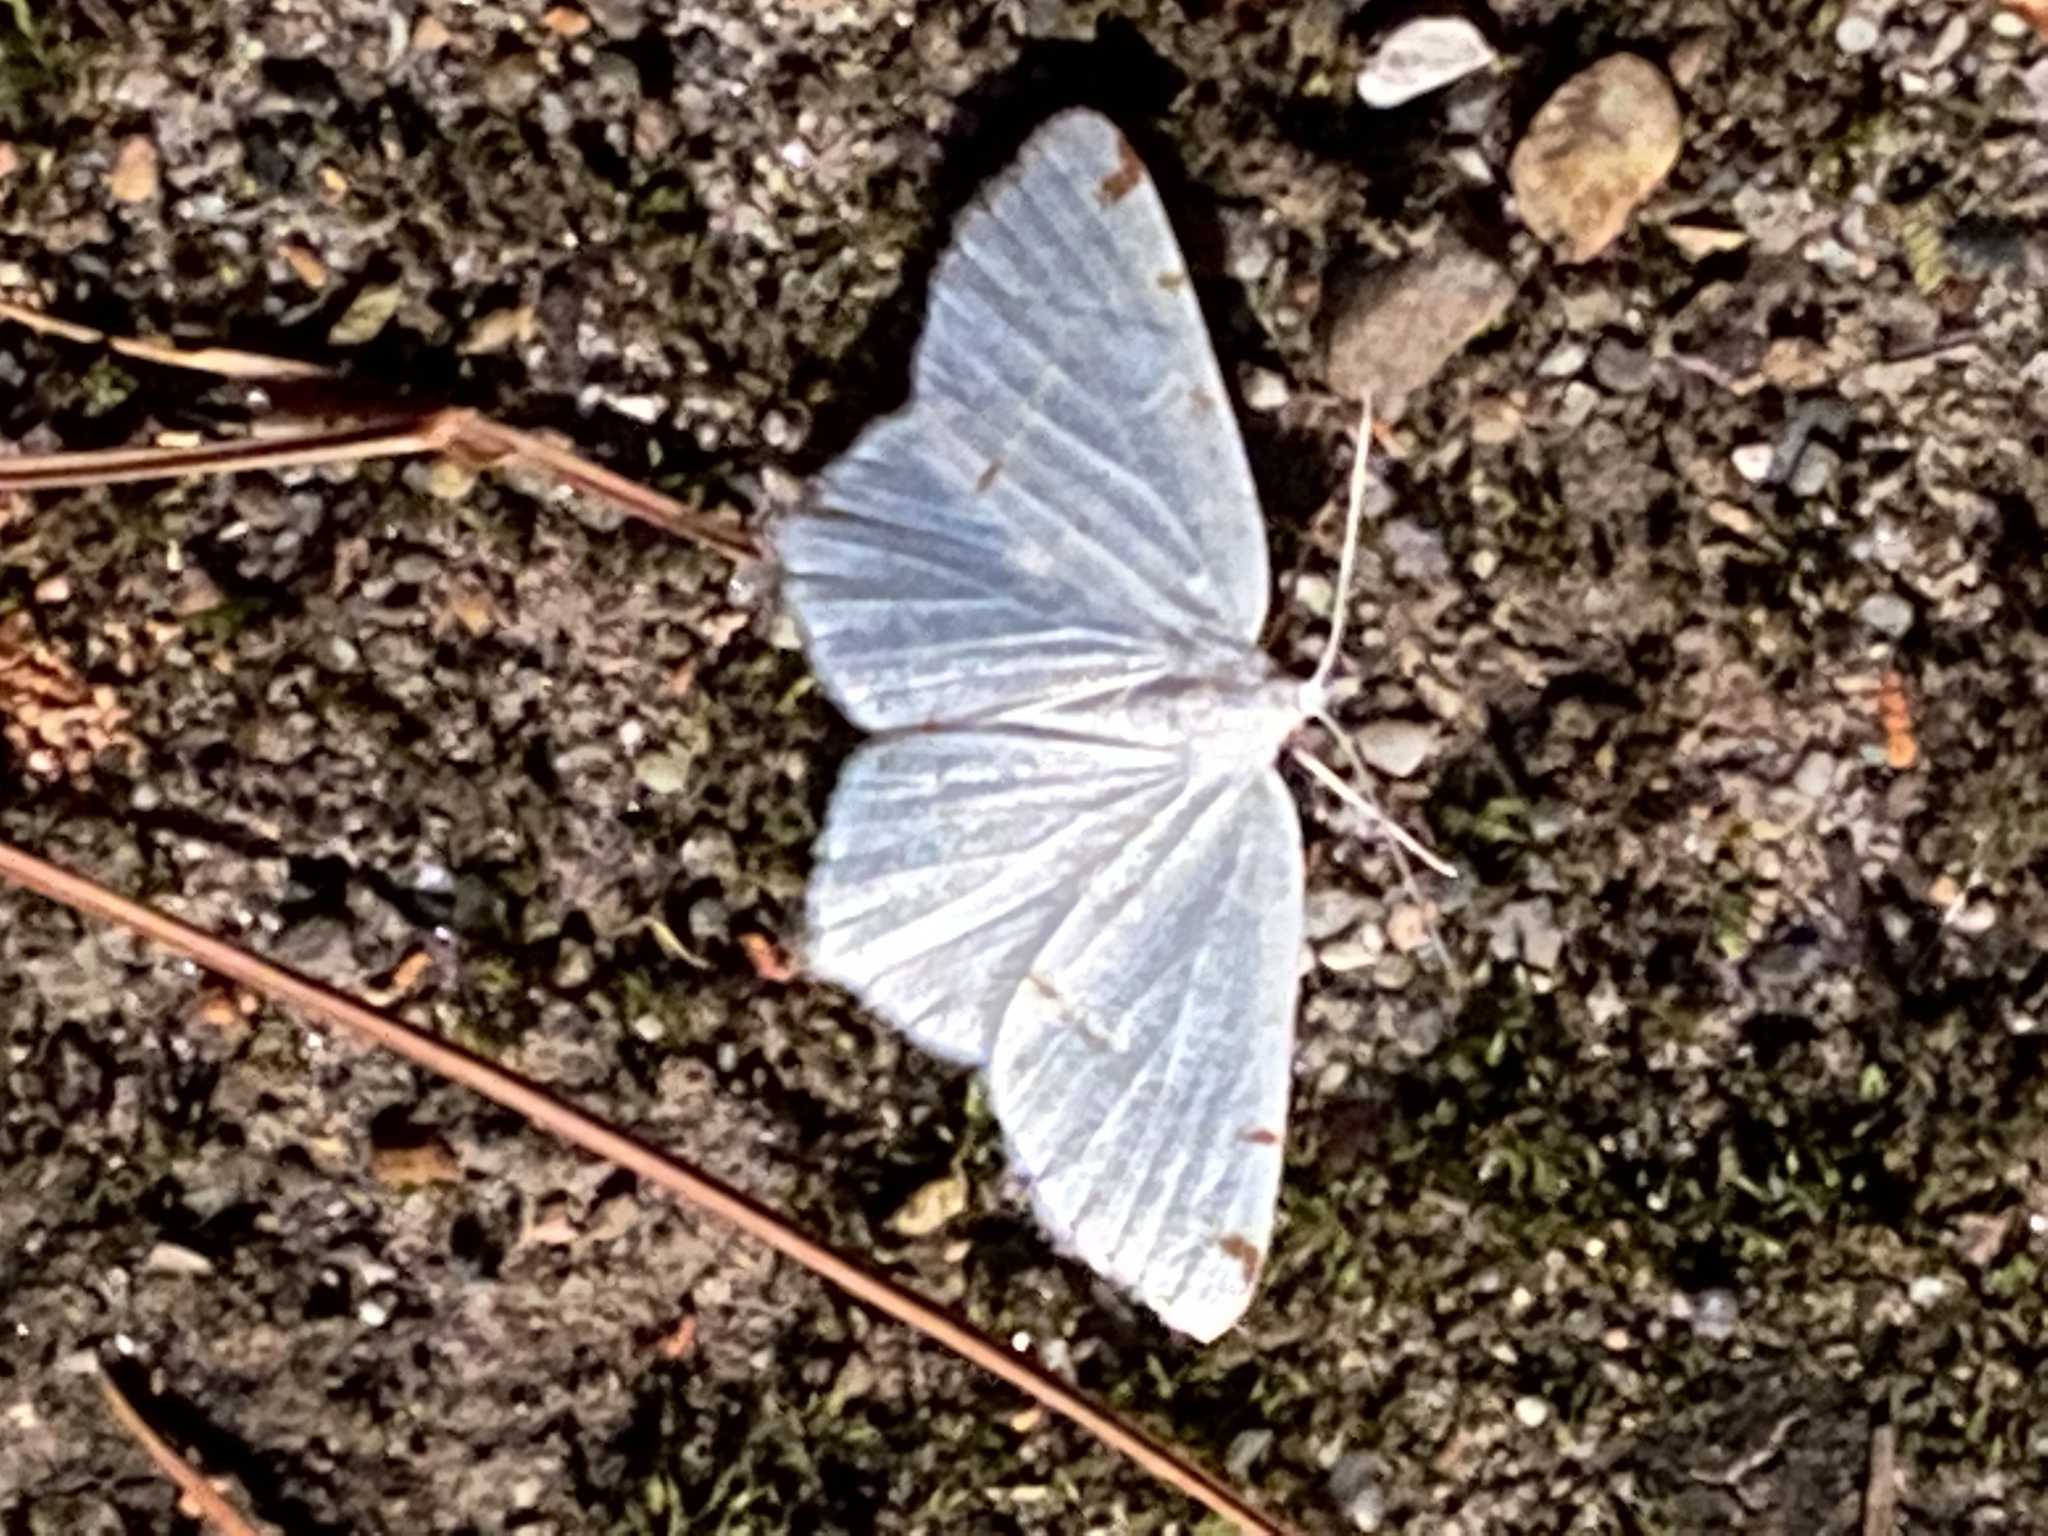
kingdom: Animalia
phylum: Arthropoda
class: Insecta
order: Lepidoptera
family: Geometridae
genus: Macaria
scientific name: Macaria pustularia
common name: Lesser maple spanworm moth
